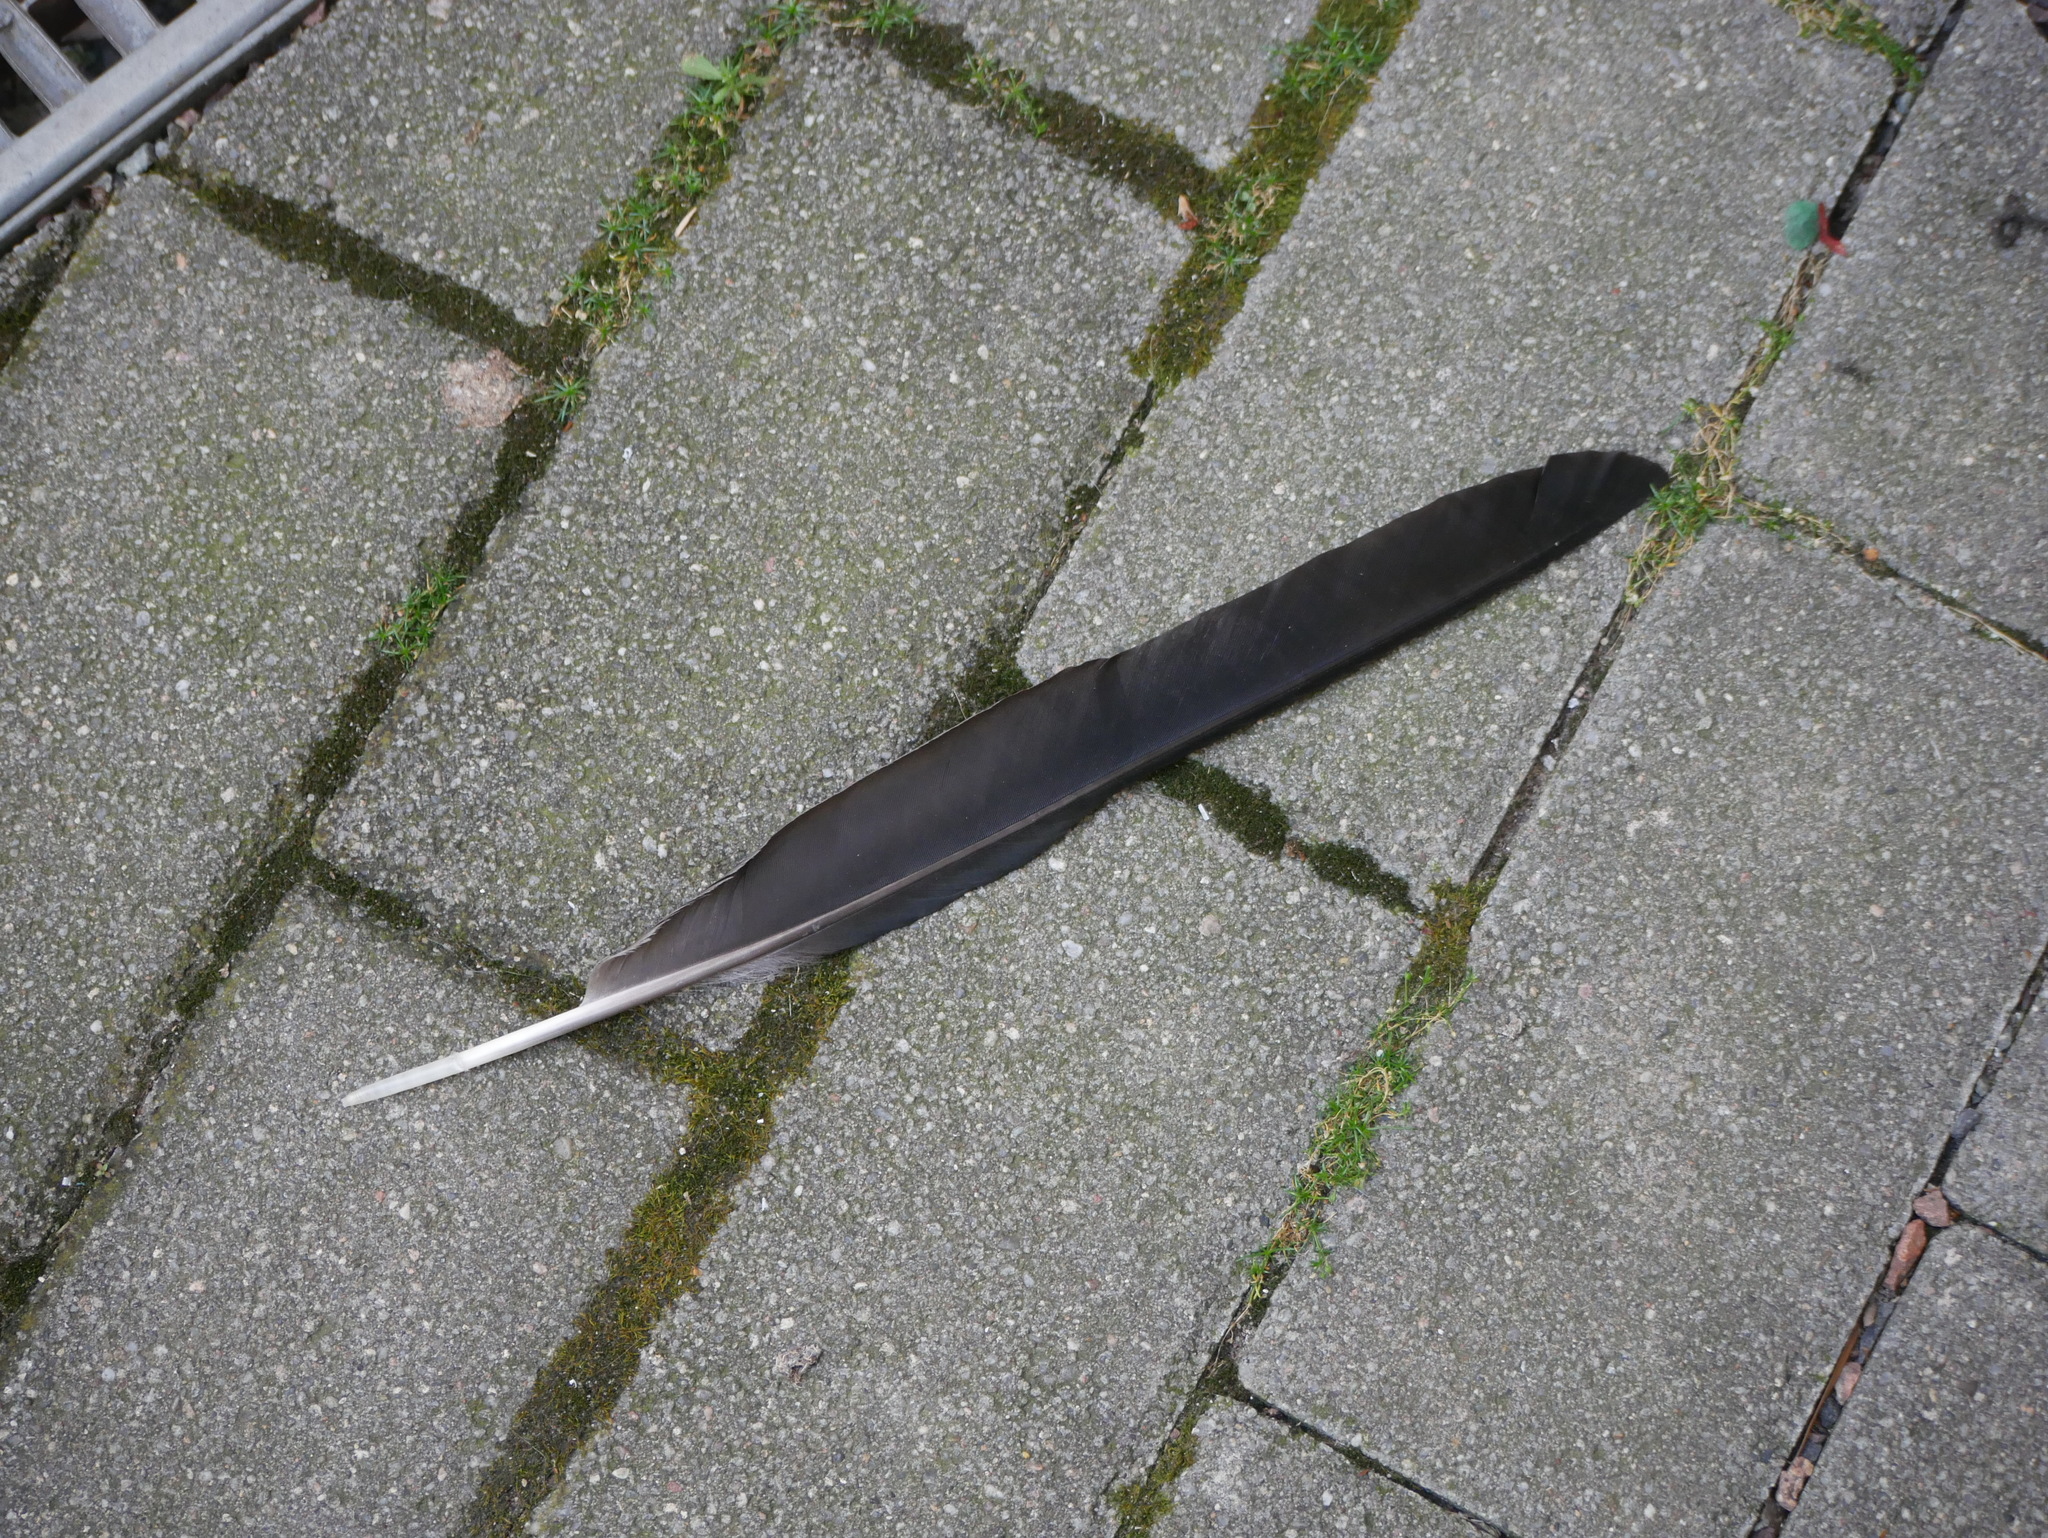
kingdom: Animalia
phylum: Chordata
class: Aves
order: Passeriformes
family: Corvidae
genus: Corvus
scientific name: Corvus cornix
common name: Hooded crow
